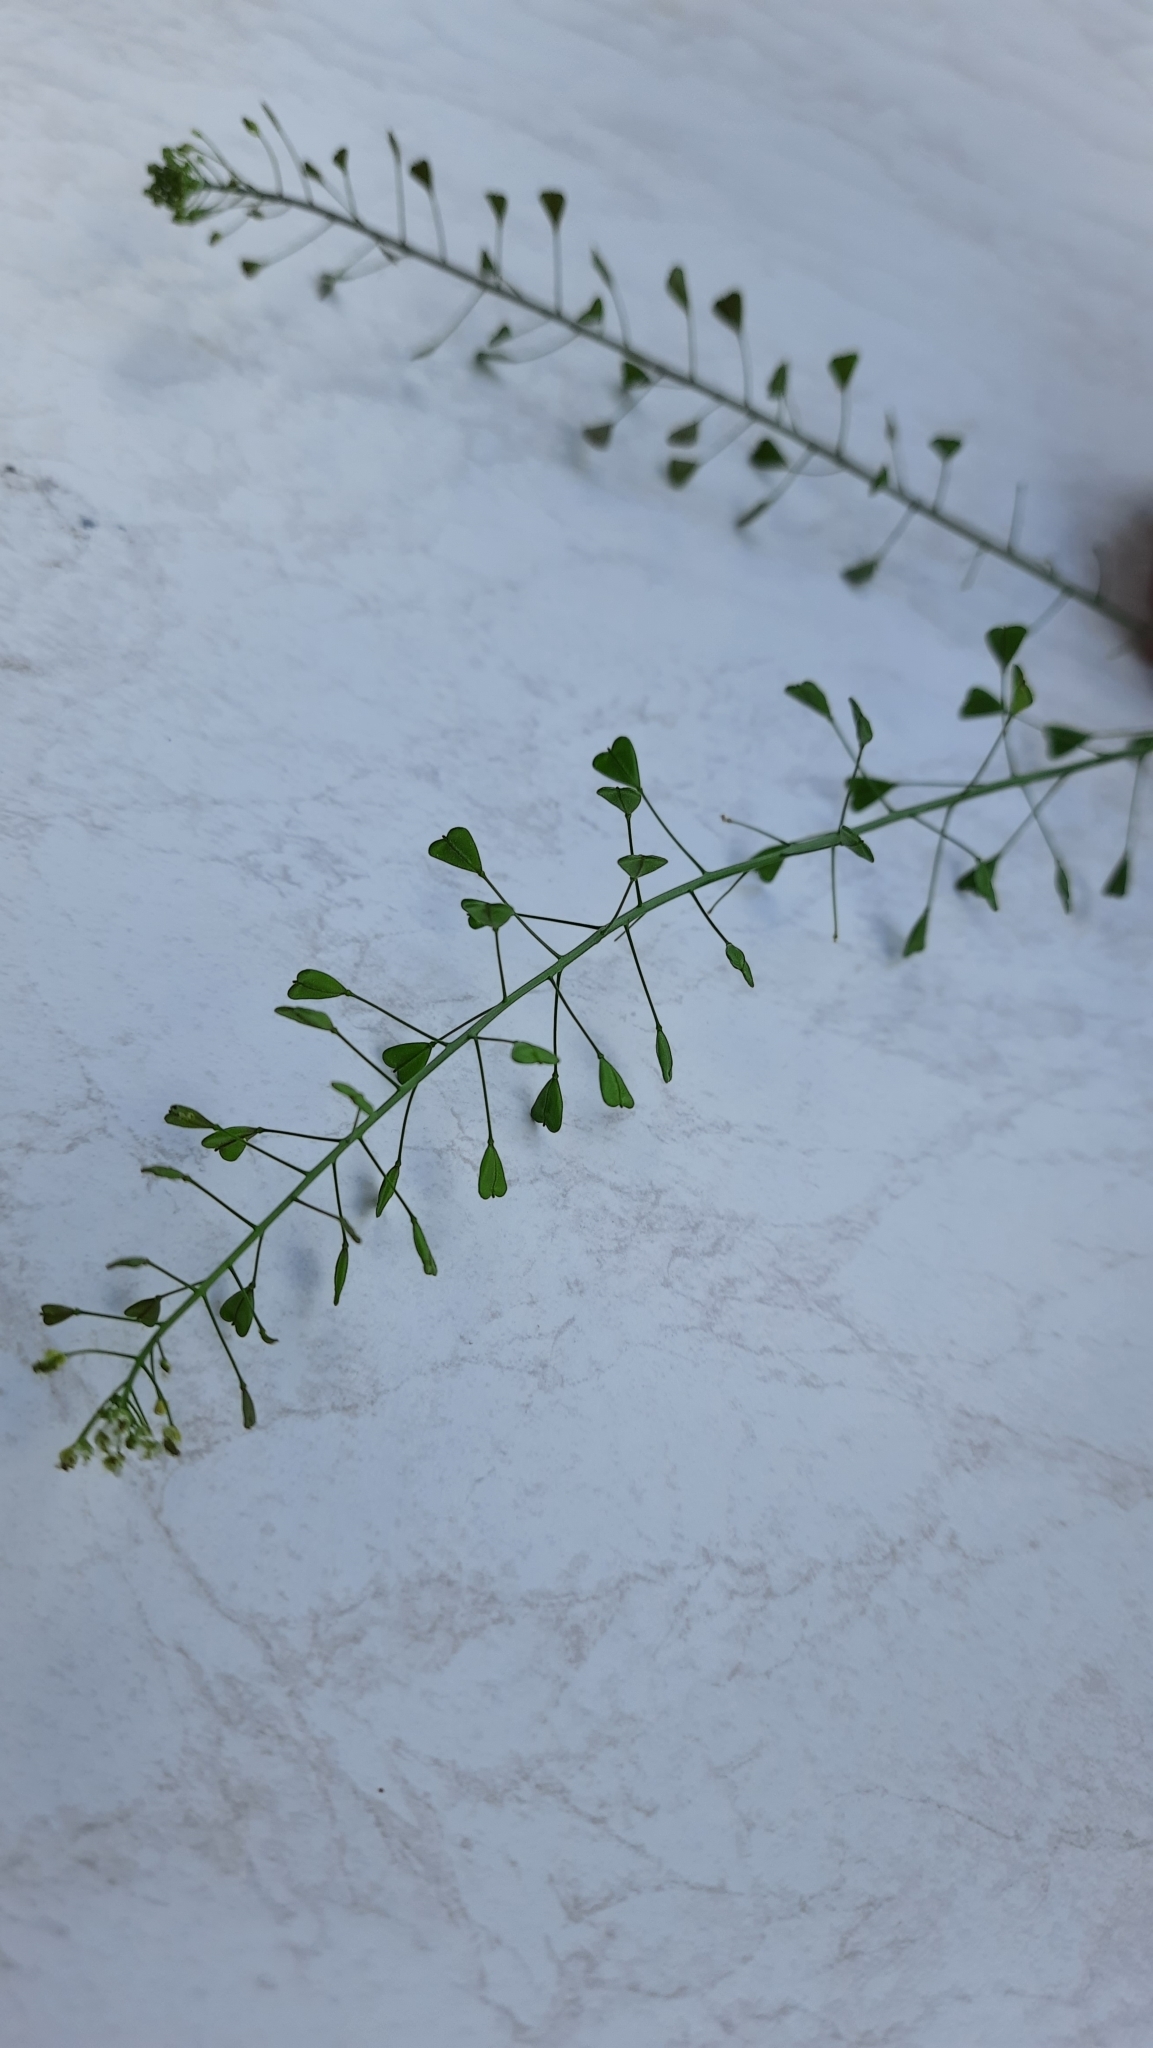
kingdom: Plantae
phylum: Tracheophyta
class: Magnoliopsida
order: Brassicales
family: Brassicaceae
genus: Capsella
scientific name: Capsella bursa-pastoris
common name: Shepherd's purse
